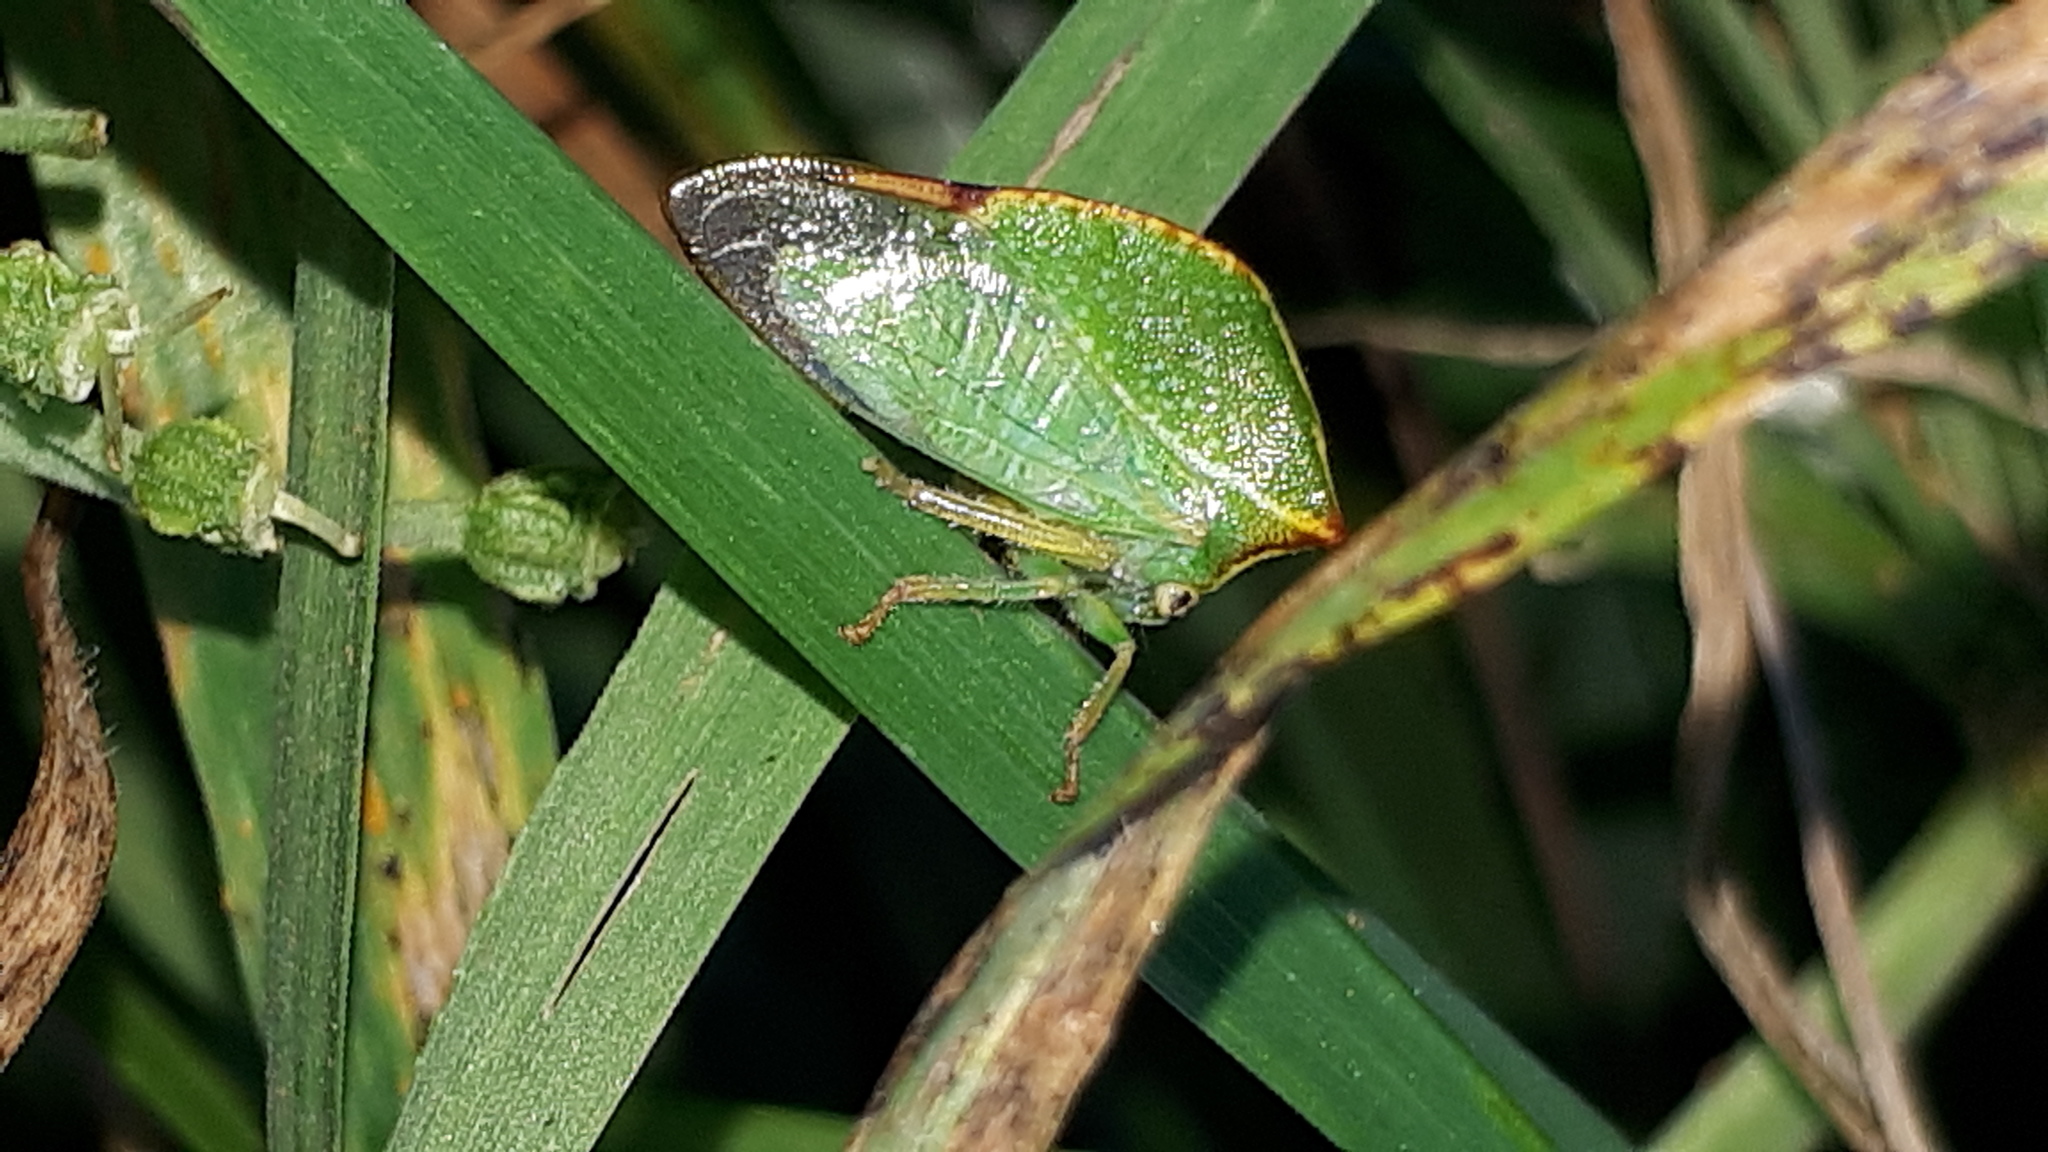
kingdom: Animalia
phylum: Arthropoda
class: Insecta
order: Hemiptera
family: Membracidae
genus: Stictocephala
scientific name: Stictocephala bisonia
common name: American buffalo treehopper
